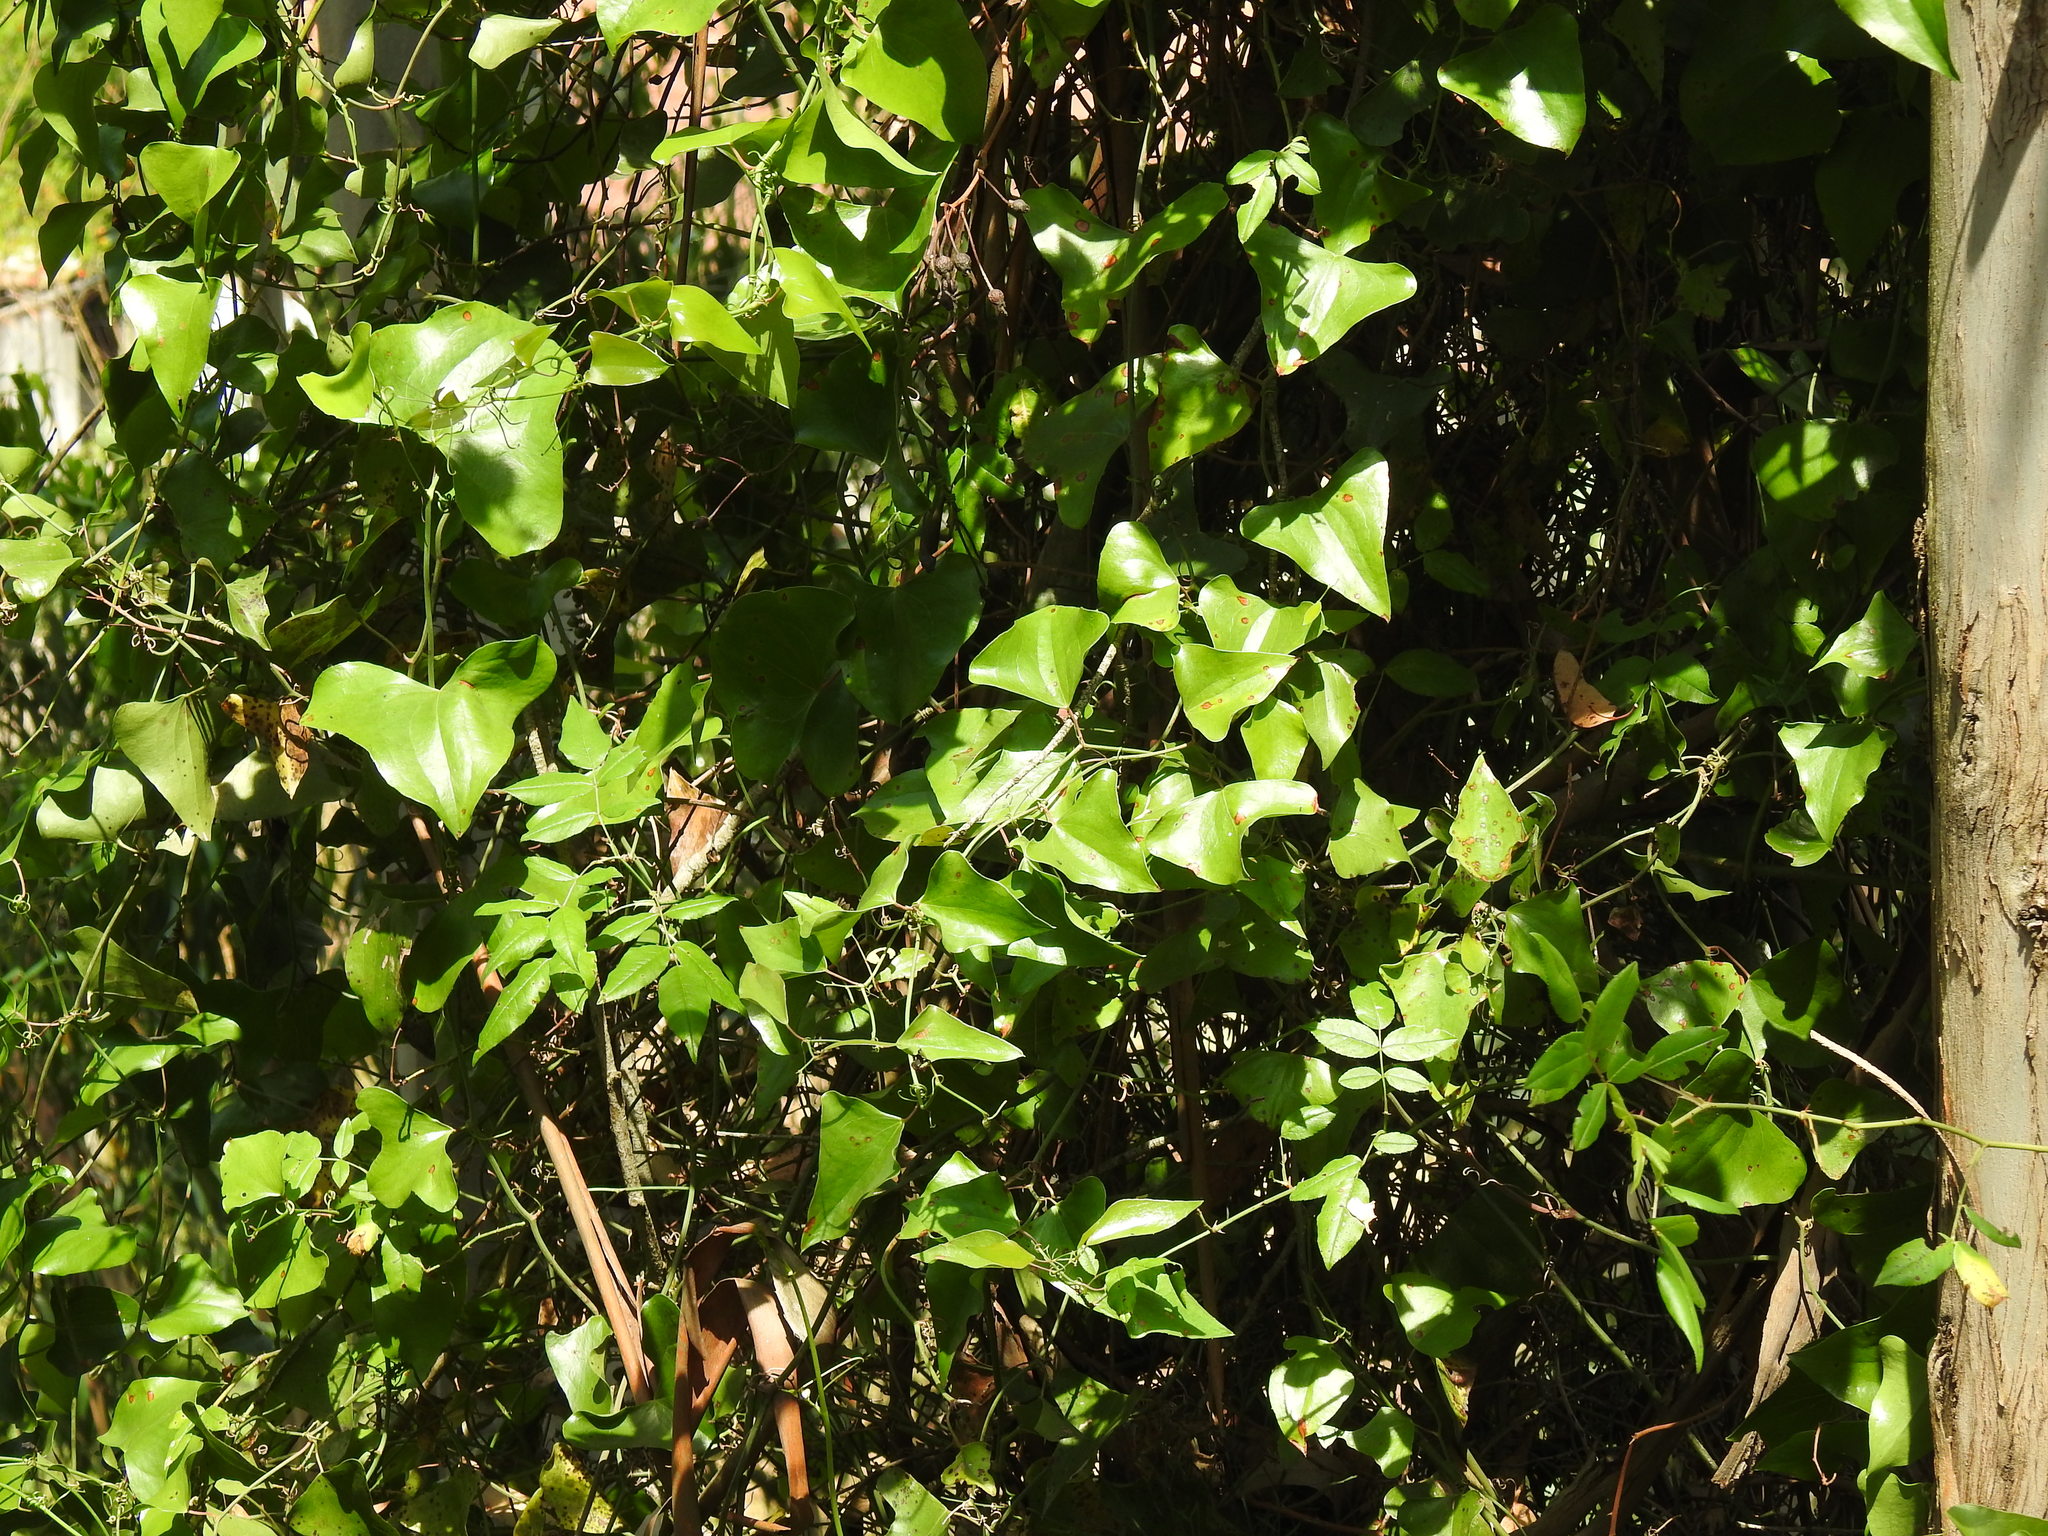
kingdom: Plantae
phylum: Tracheophyta
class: Liliopsida
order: Liliales
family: Smilacaceae
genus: Smilax
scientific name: Smilax aspera
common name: Common smilax
